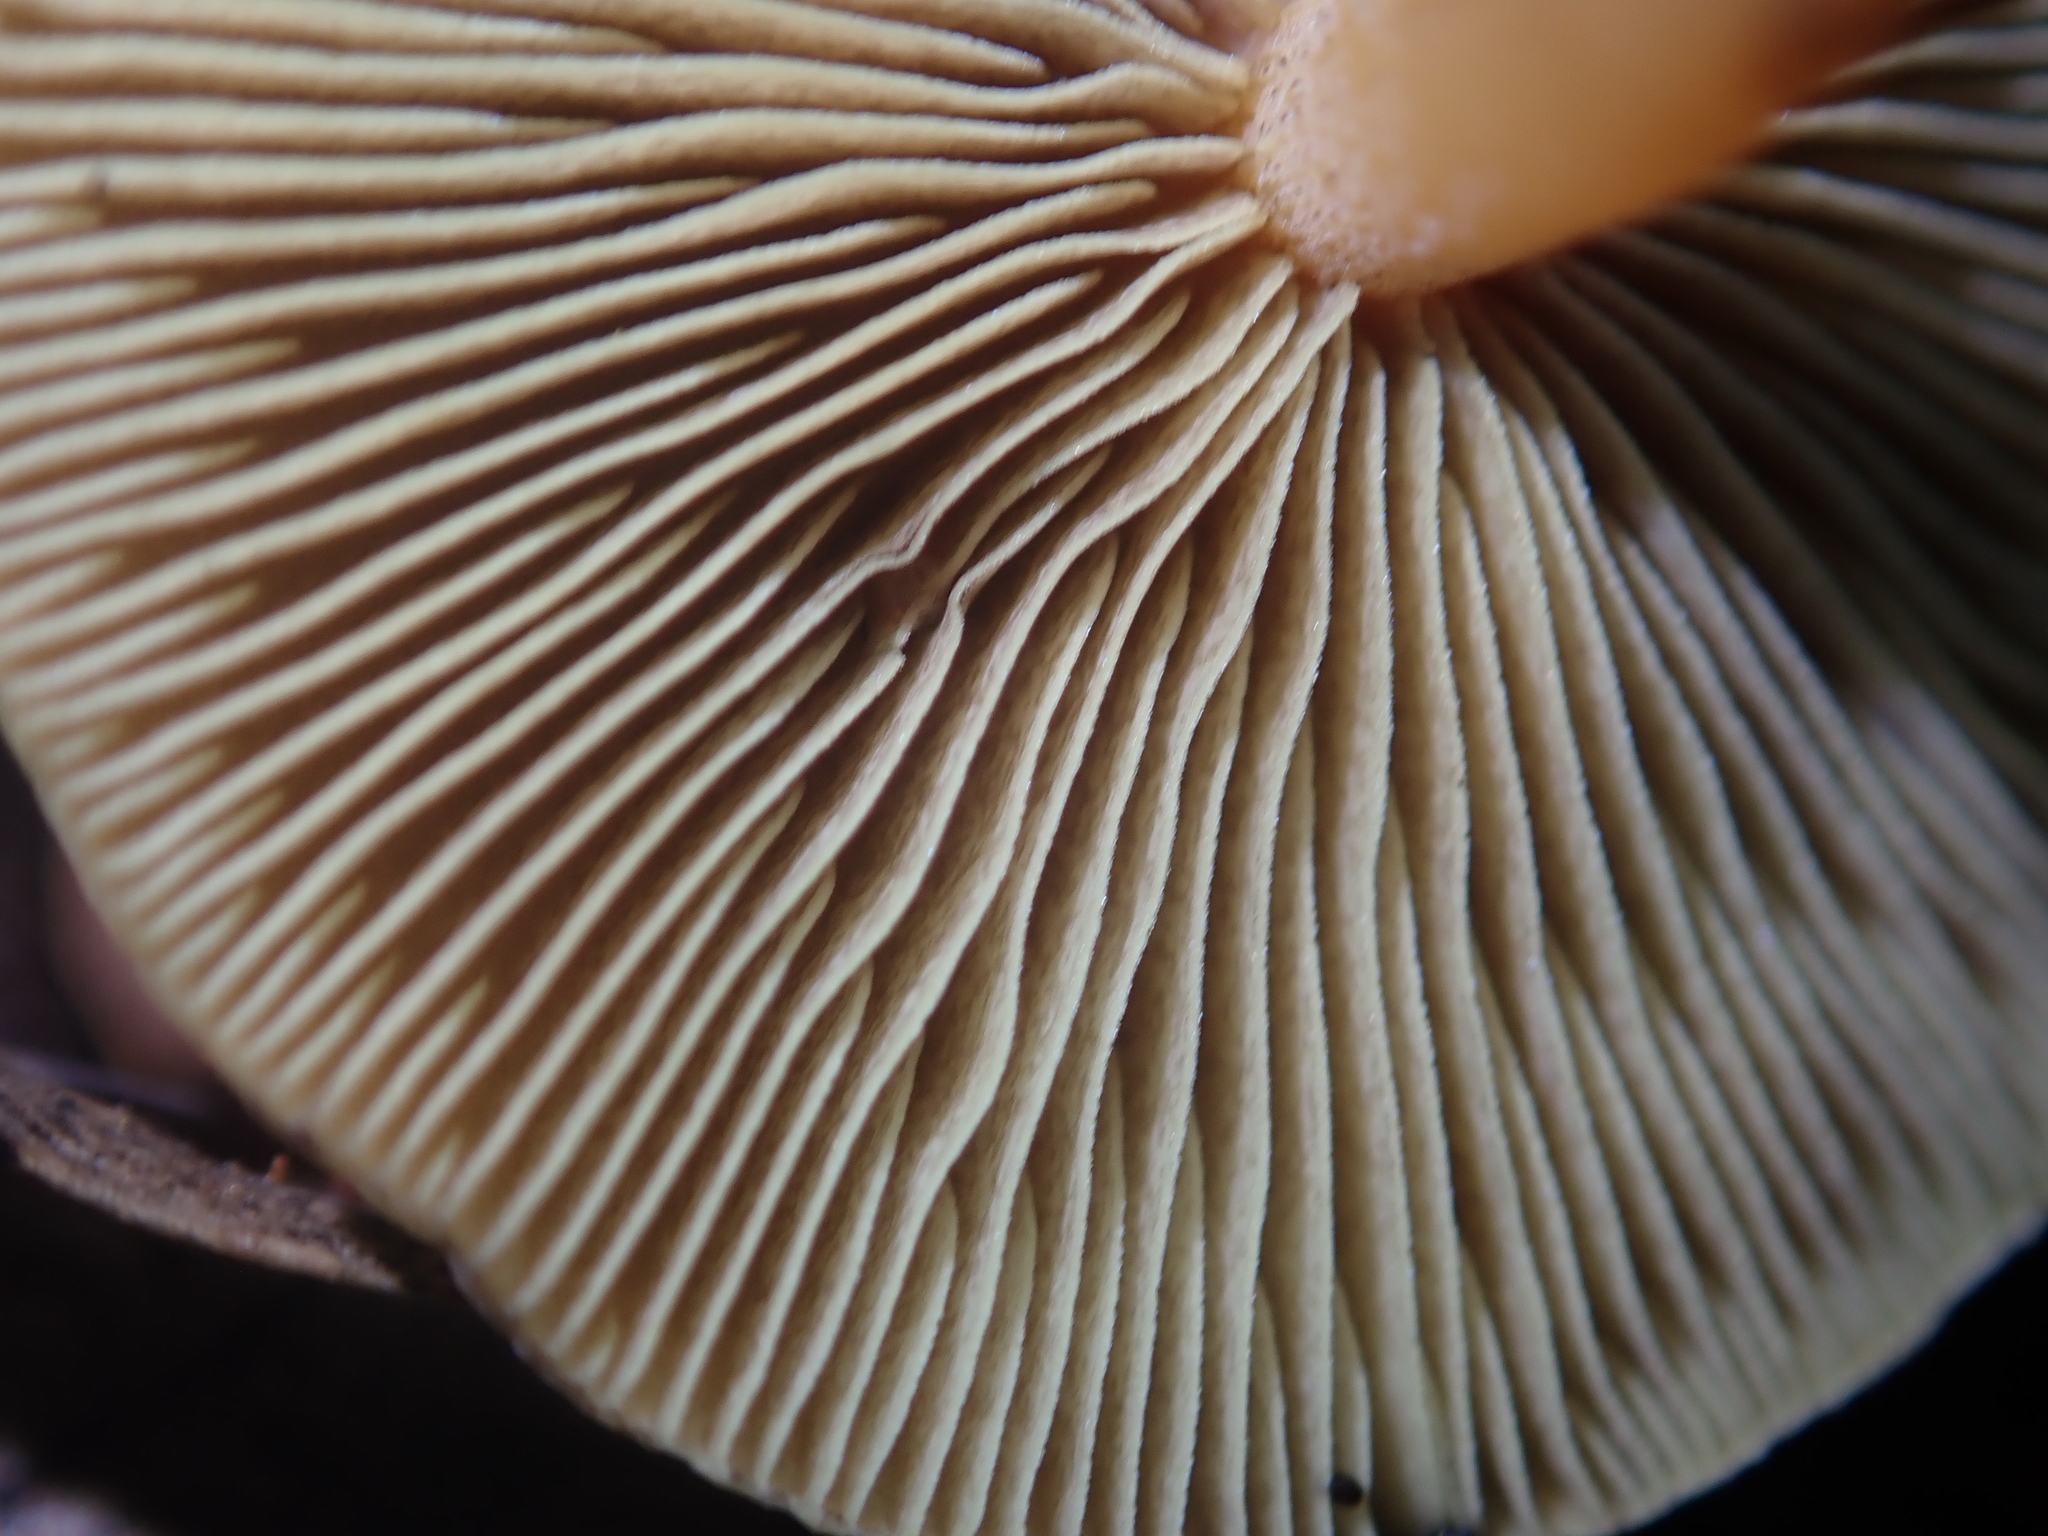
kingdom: Fungi
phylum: Basidiomycota
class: Agaricomycetes
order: Agaricales
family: Strophariaceae
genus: Hypholoma
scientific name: Hypholoma acutum
